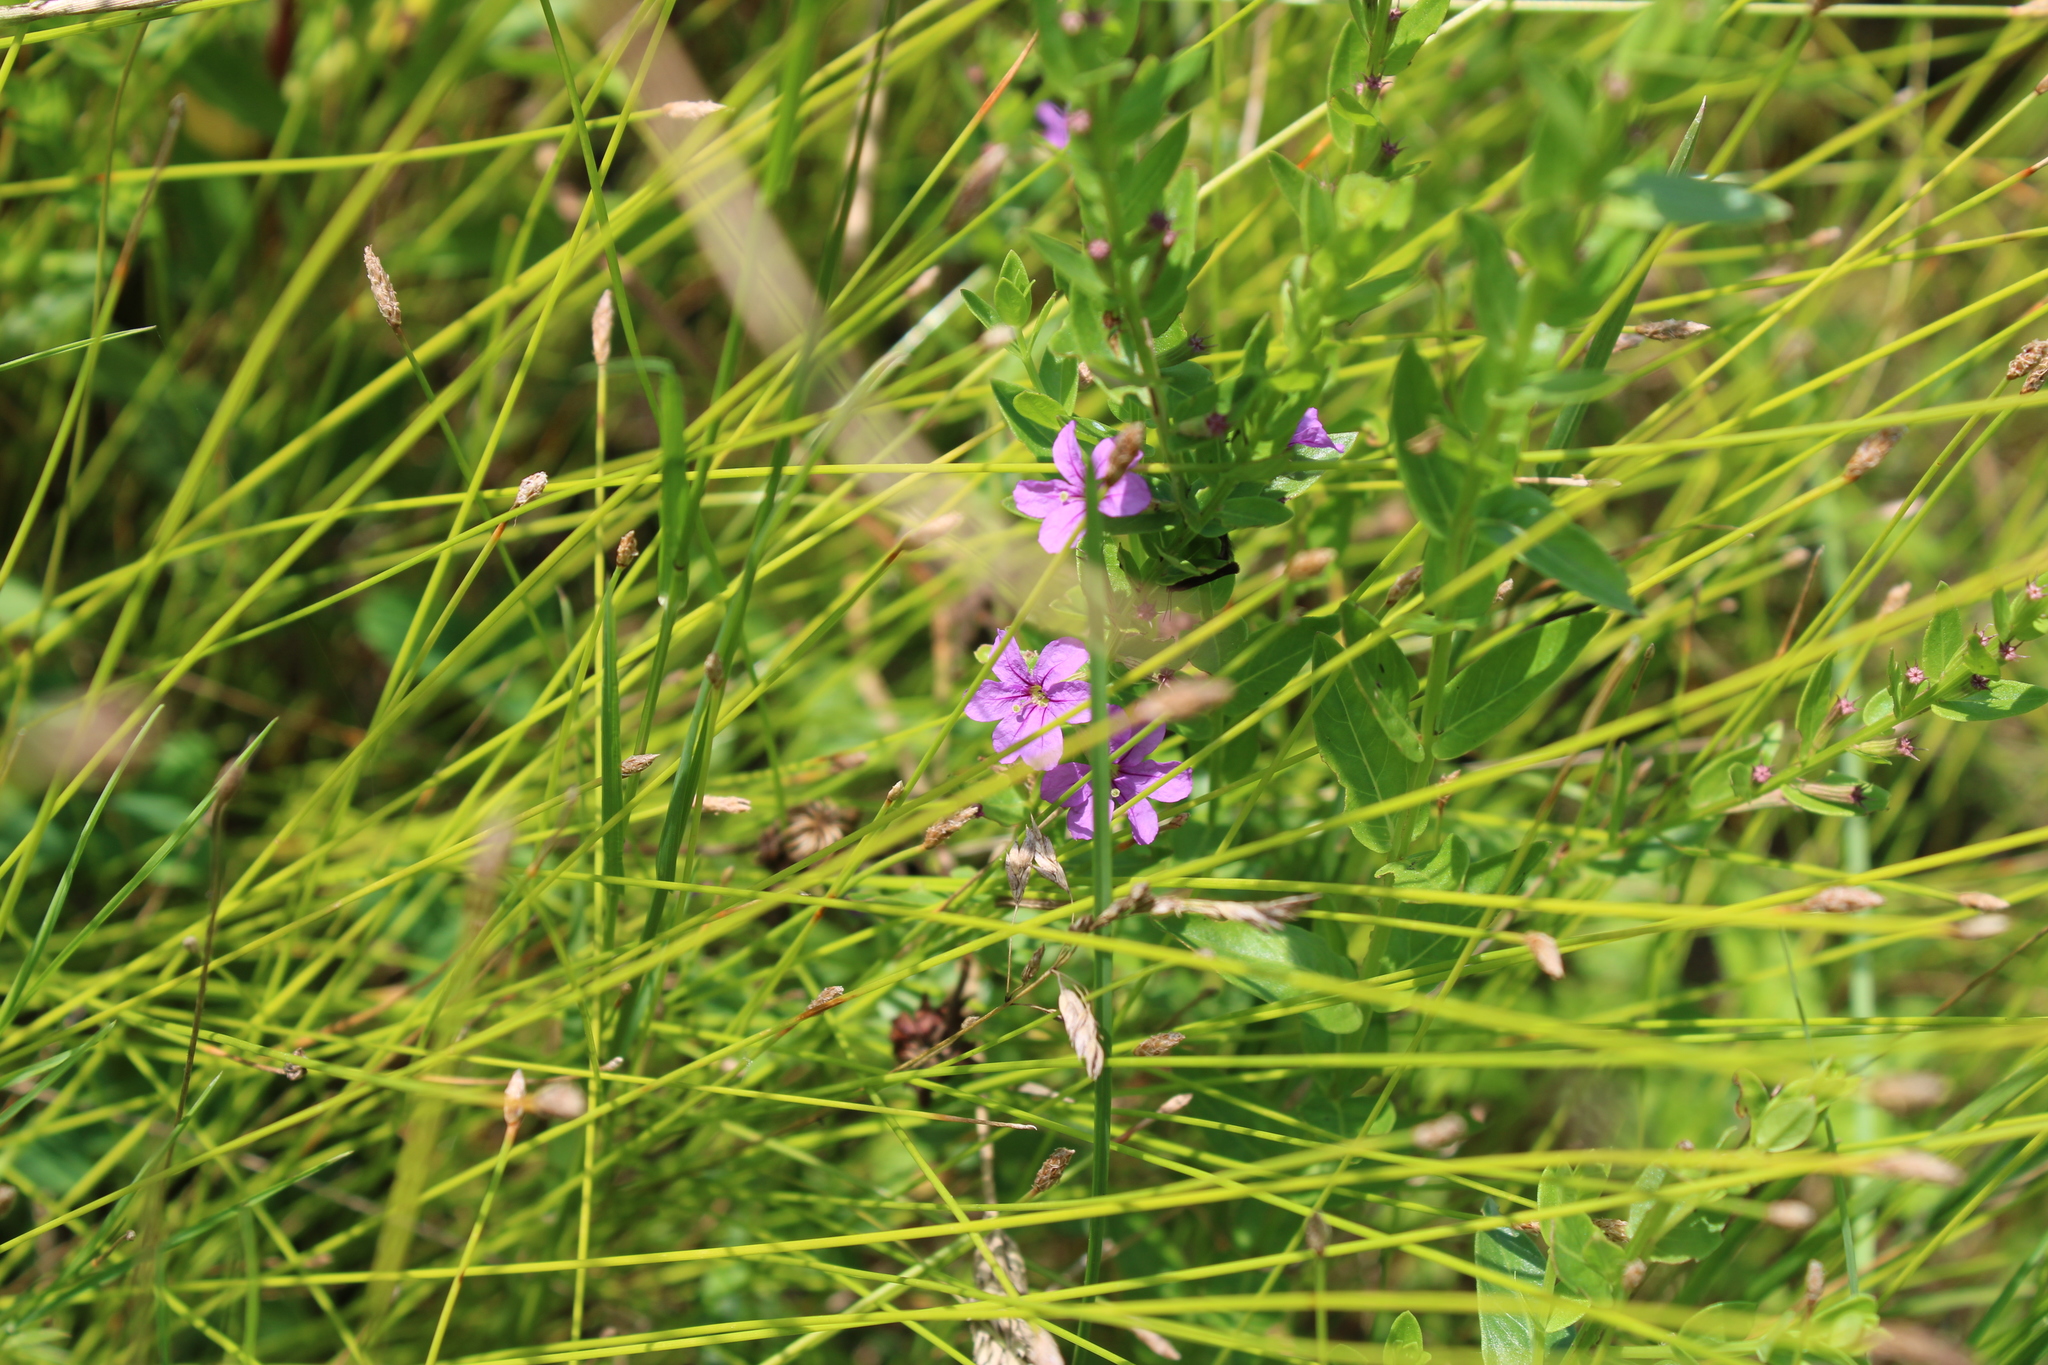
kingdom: Plantae
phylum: Tracheophyta
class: Magnoliopsida
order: Myrtales
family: Lythraceae
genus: Lythrum
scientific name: Lythrum alatum
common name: Winged loosestrife
